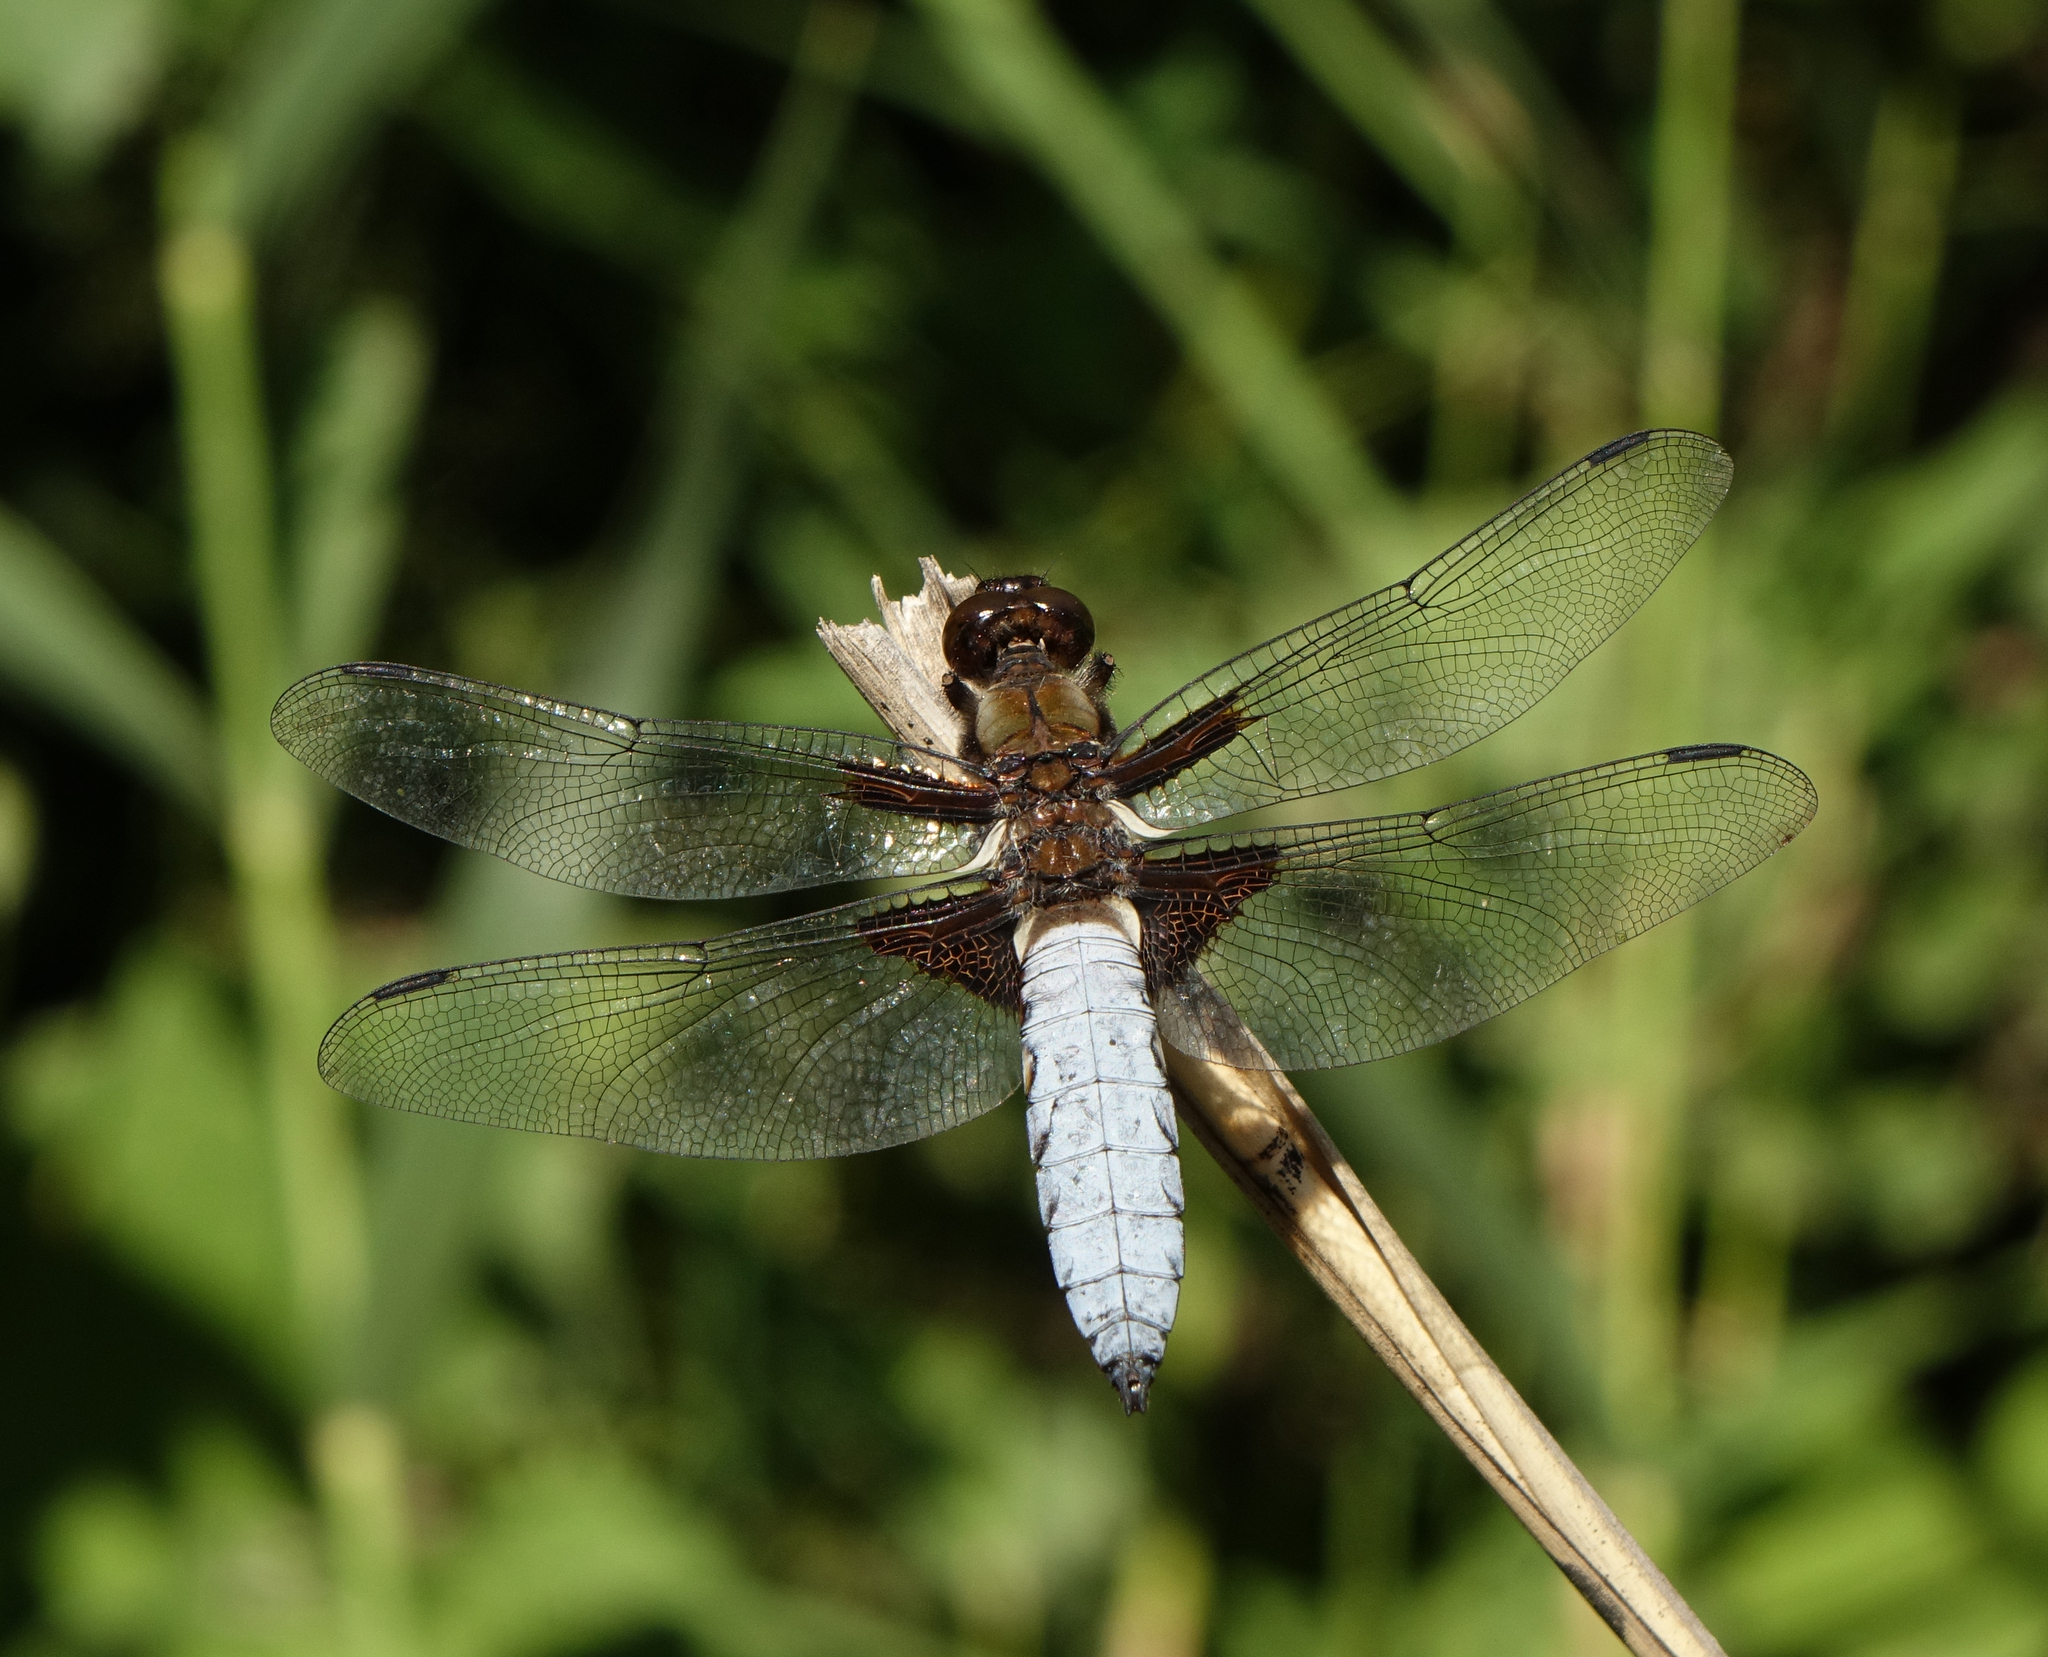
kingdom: Animalia
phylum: Arthropoda
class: Insecta
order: Odonata
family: Libellulidae
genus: Libellula
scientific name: Libellula depressa
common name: Broad-bodied chaser
